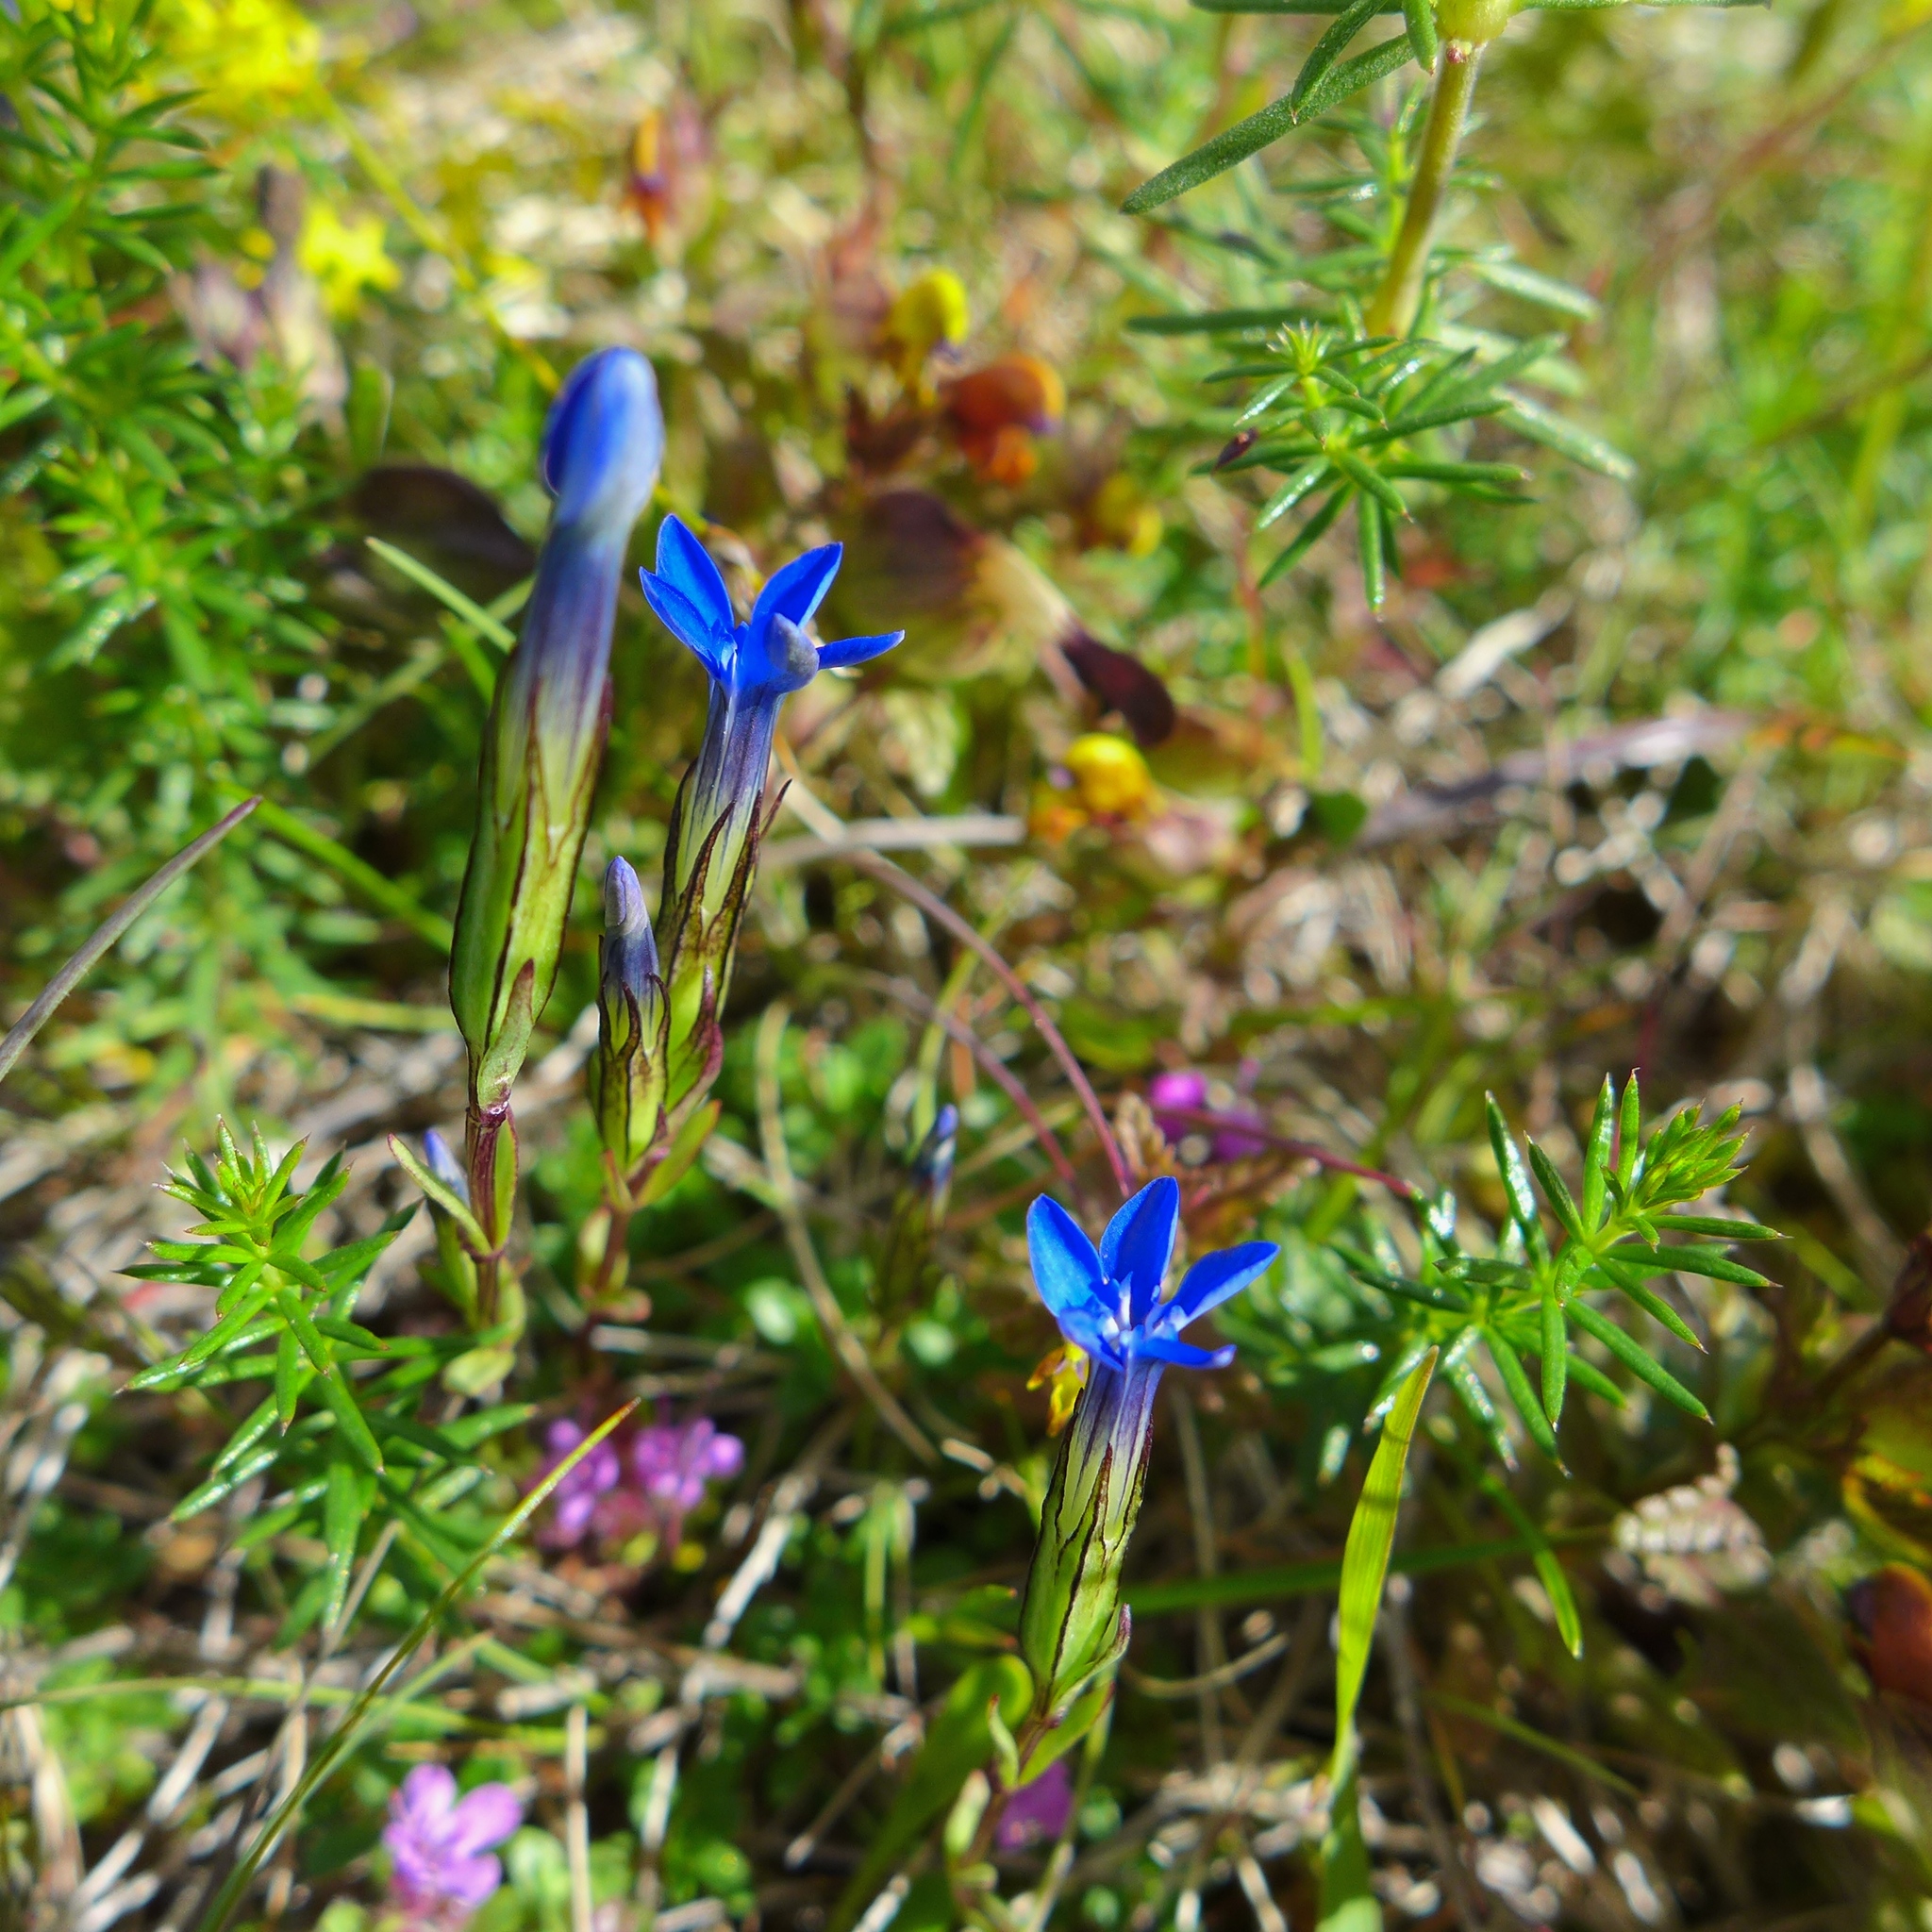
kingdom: Plantae
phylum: Tracheophyta
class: Magnoliopsida
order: Gentianales
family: Gentianaceae
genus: Gentiana
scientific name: Gentiana nivalis
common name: Alpine gentian
